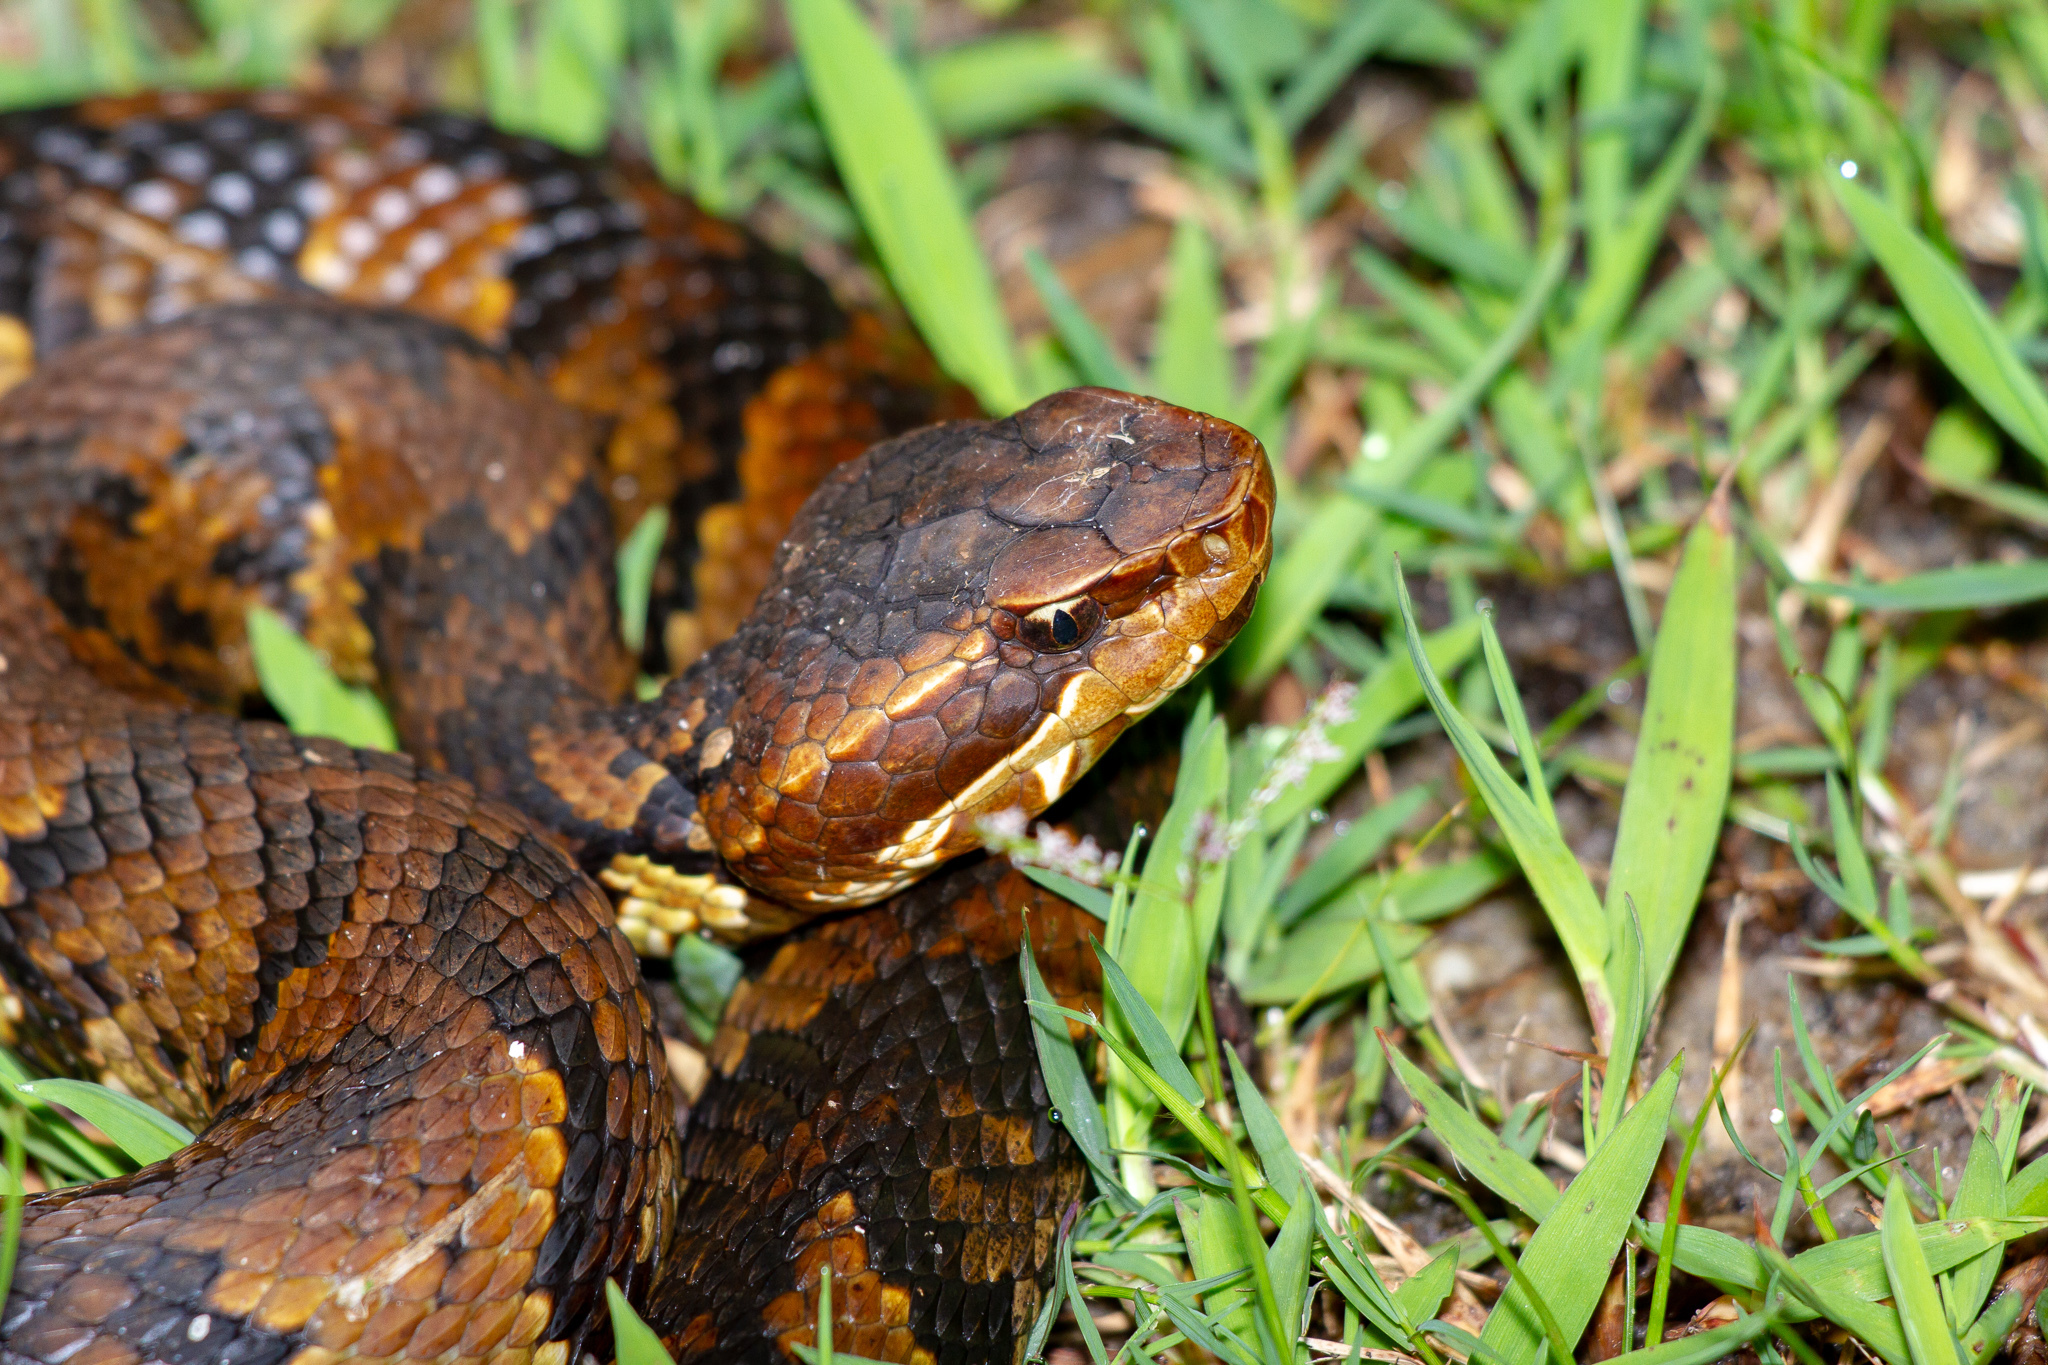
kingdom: Animalia
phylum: Chordata
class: Squamata
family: Viperidae
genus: Agkistrodon
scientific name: Agkistrodon piscivorus
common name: Cottonmouth
